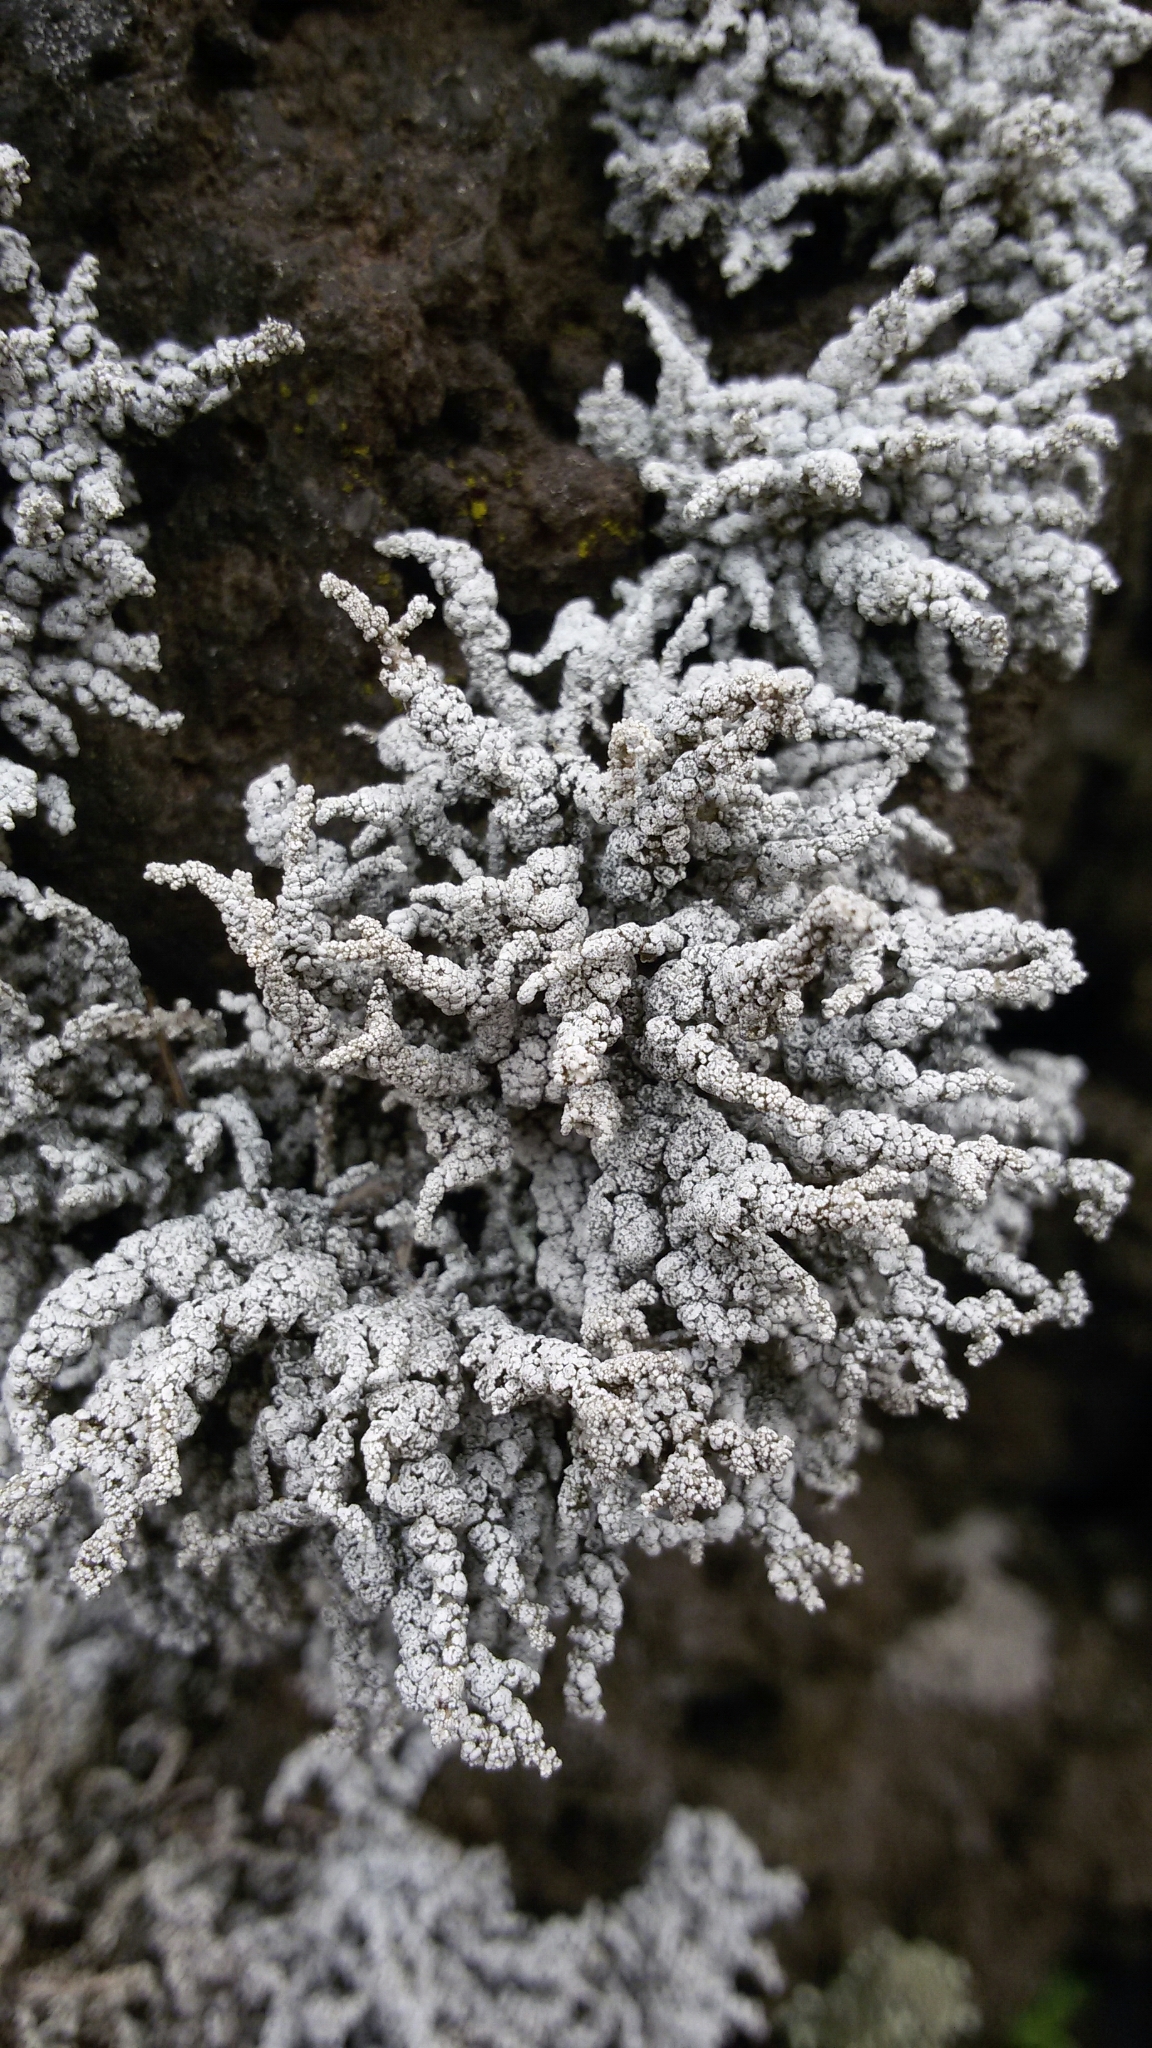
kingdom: Fungi
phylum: Ascomycota
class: Lecanoromycetes
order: Lecanorales
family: Stereocaulaceae
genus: Stereocaulon
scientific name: Stereocaulon vesuvianum
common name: Variegated foam lichen
